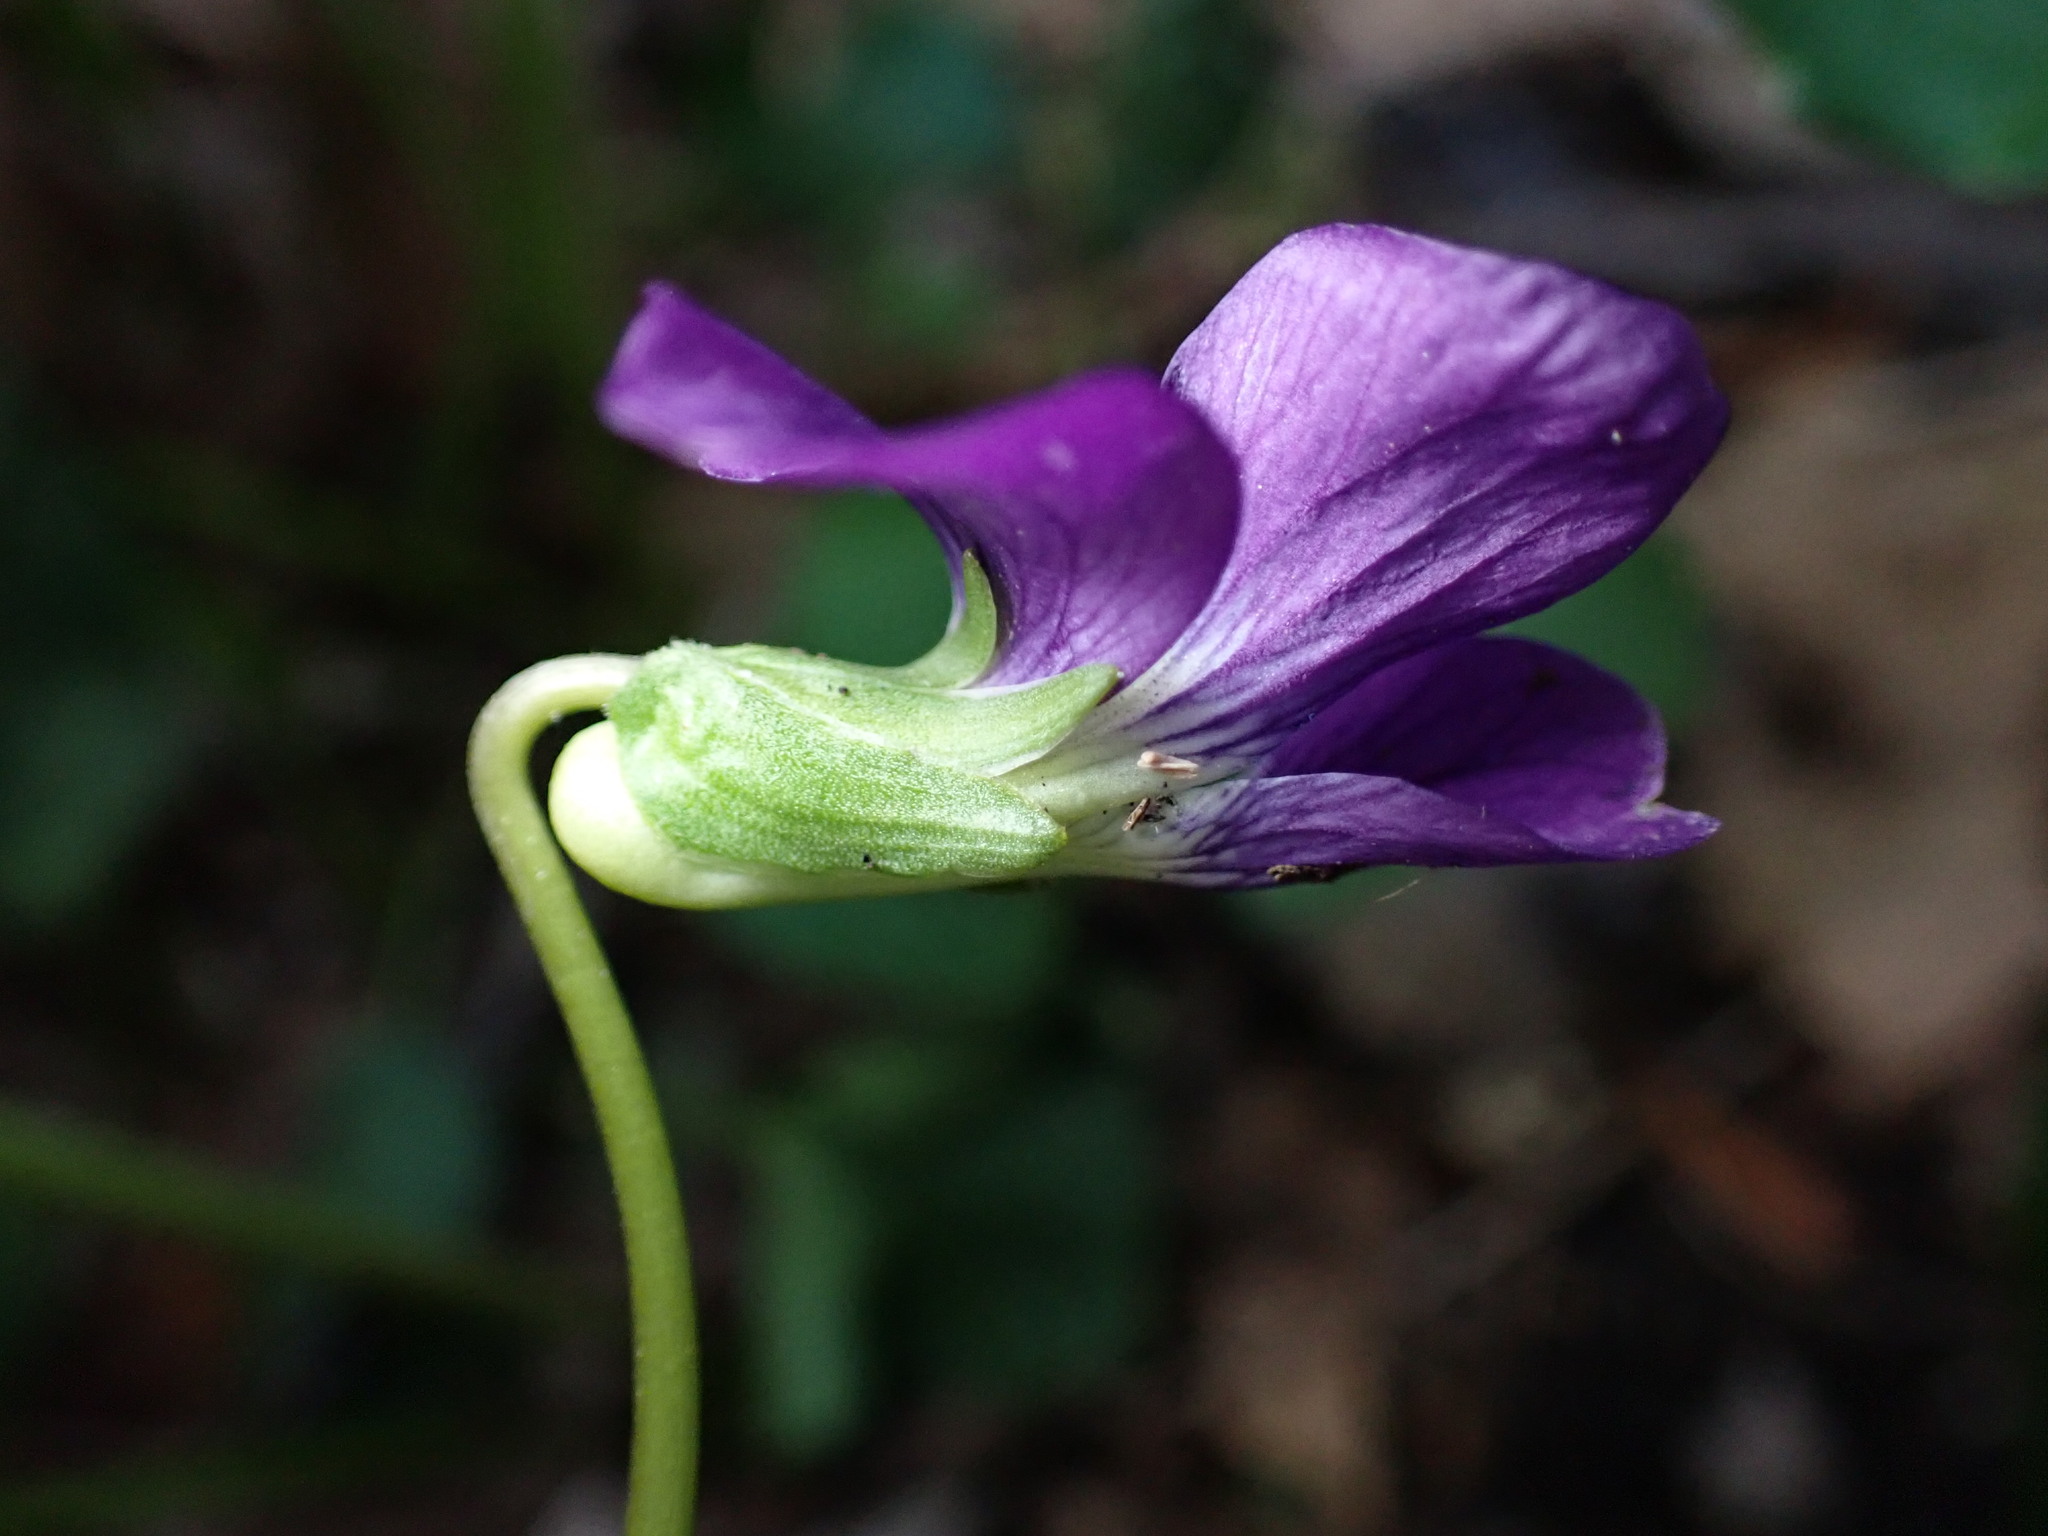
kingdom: Plantae
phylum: Tracheophyta
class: Magnoliopsida
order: Malpighiales
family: Violaceae
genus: Viola
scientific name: Viola sororia
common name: Dooryard violet
